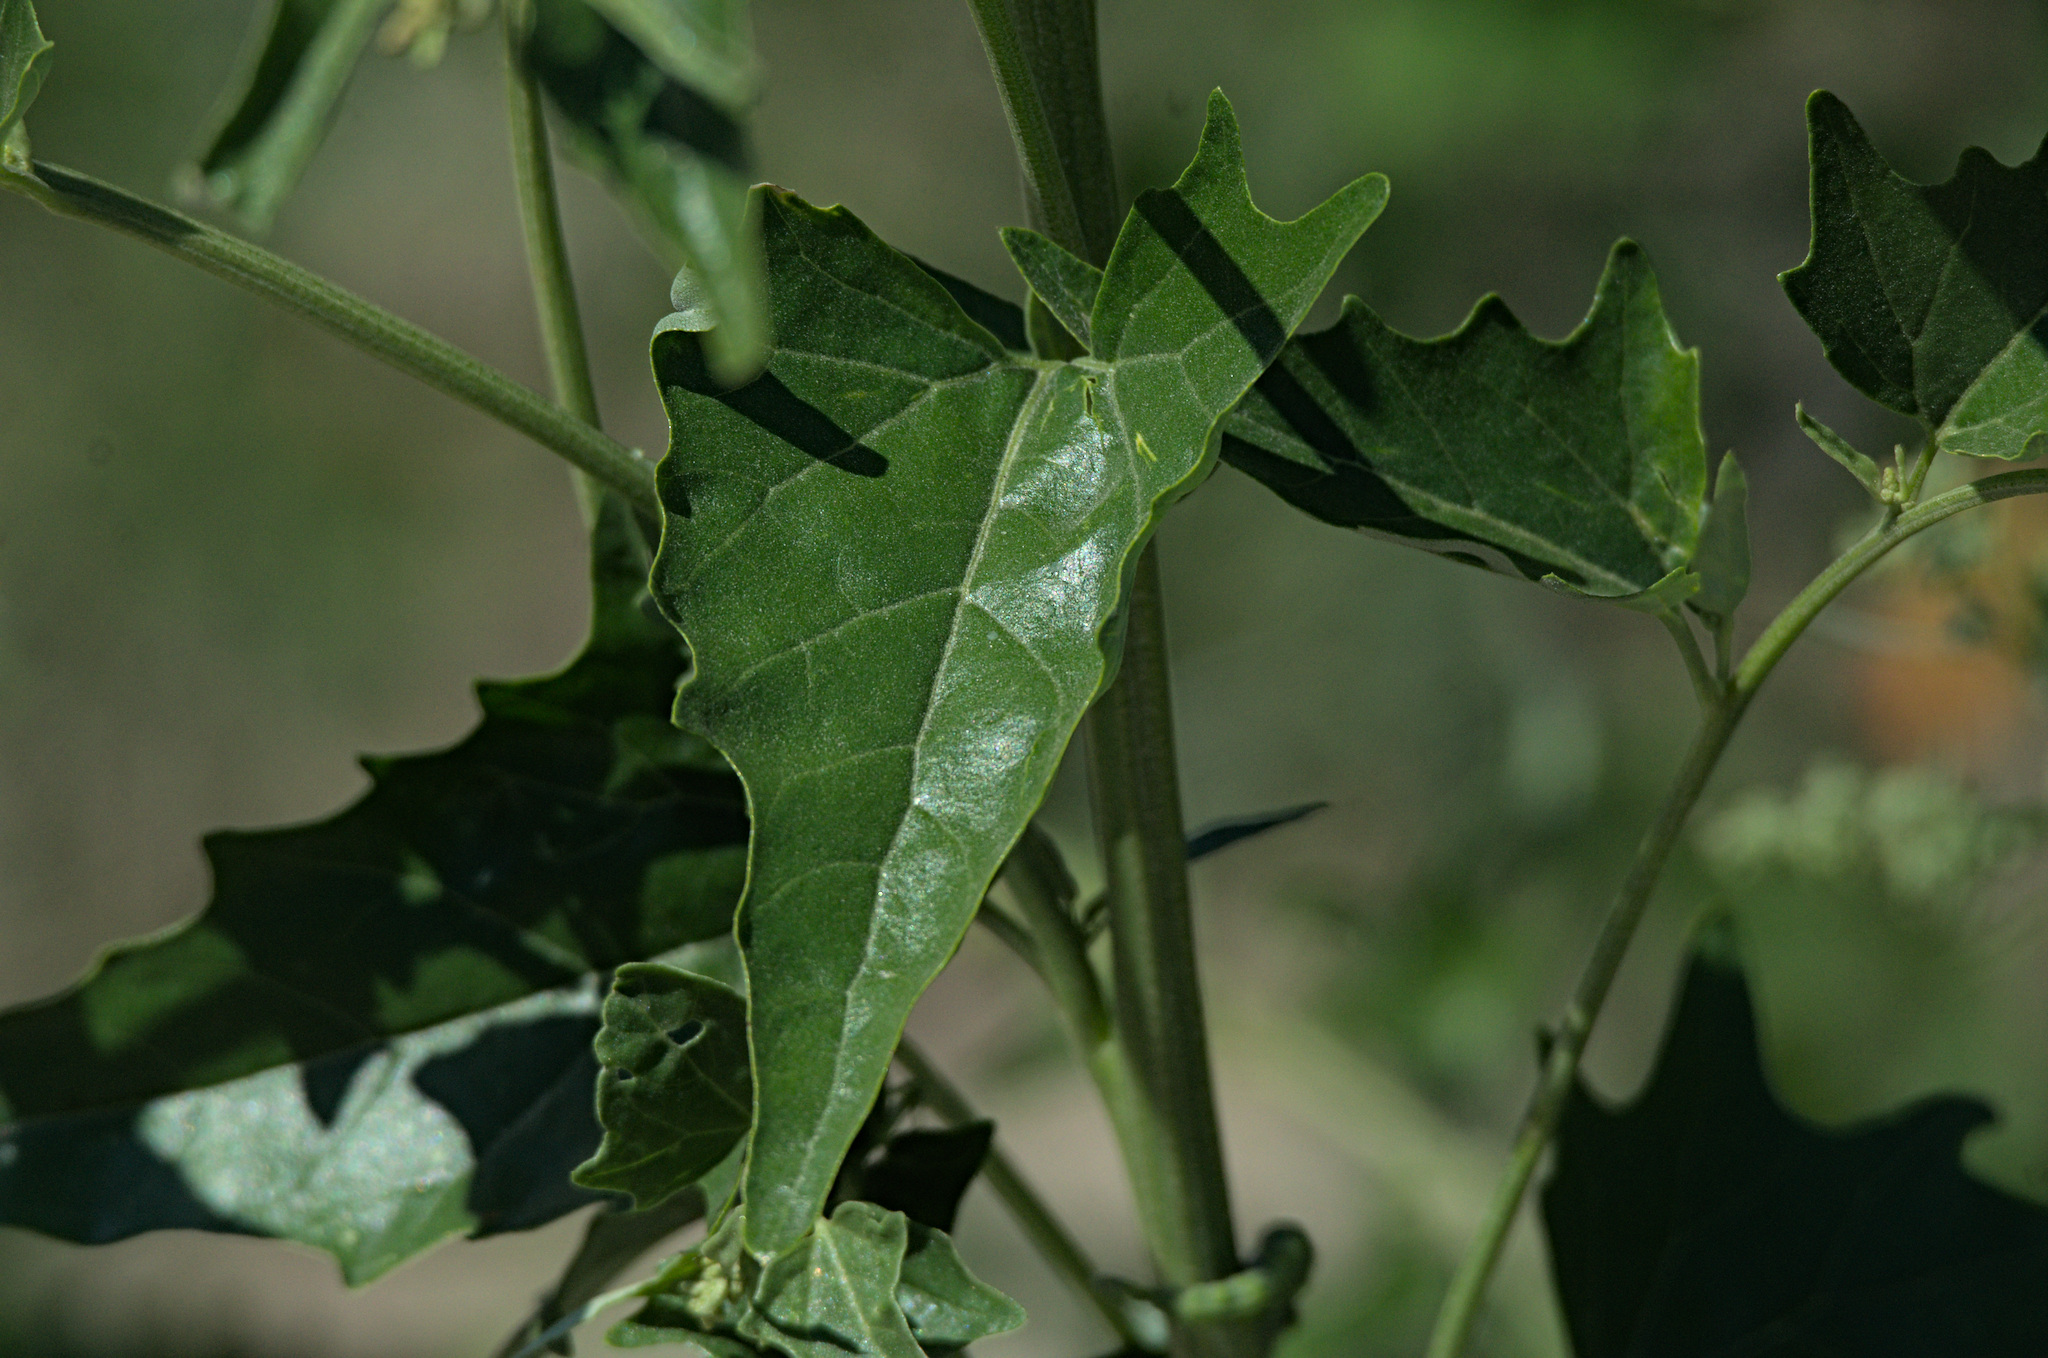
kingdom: Plantae
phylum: Tracheophyta
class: Magnoliopsida
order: Caryophyllales
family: Amaranthaceae
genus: Atriplex
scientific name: Atriplex sagittata
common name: Purple orache
